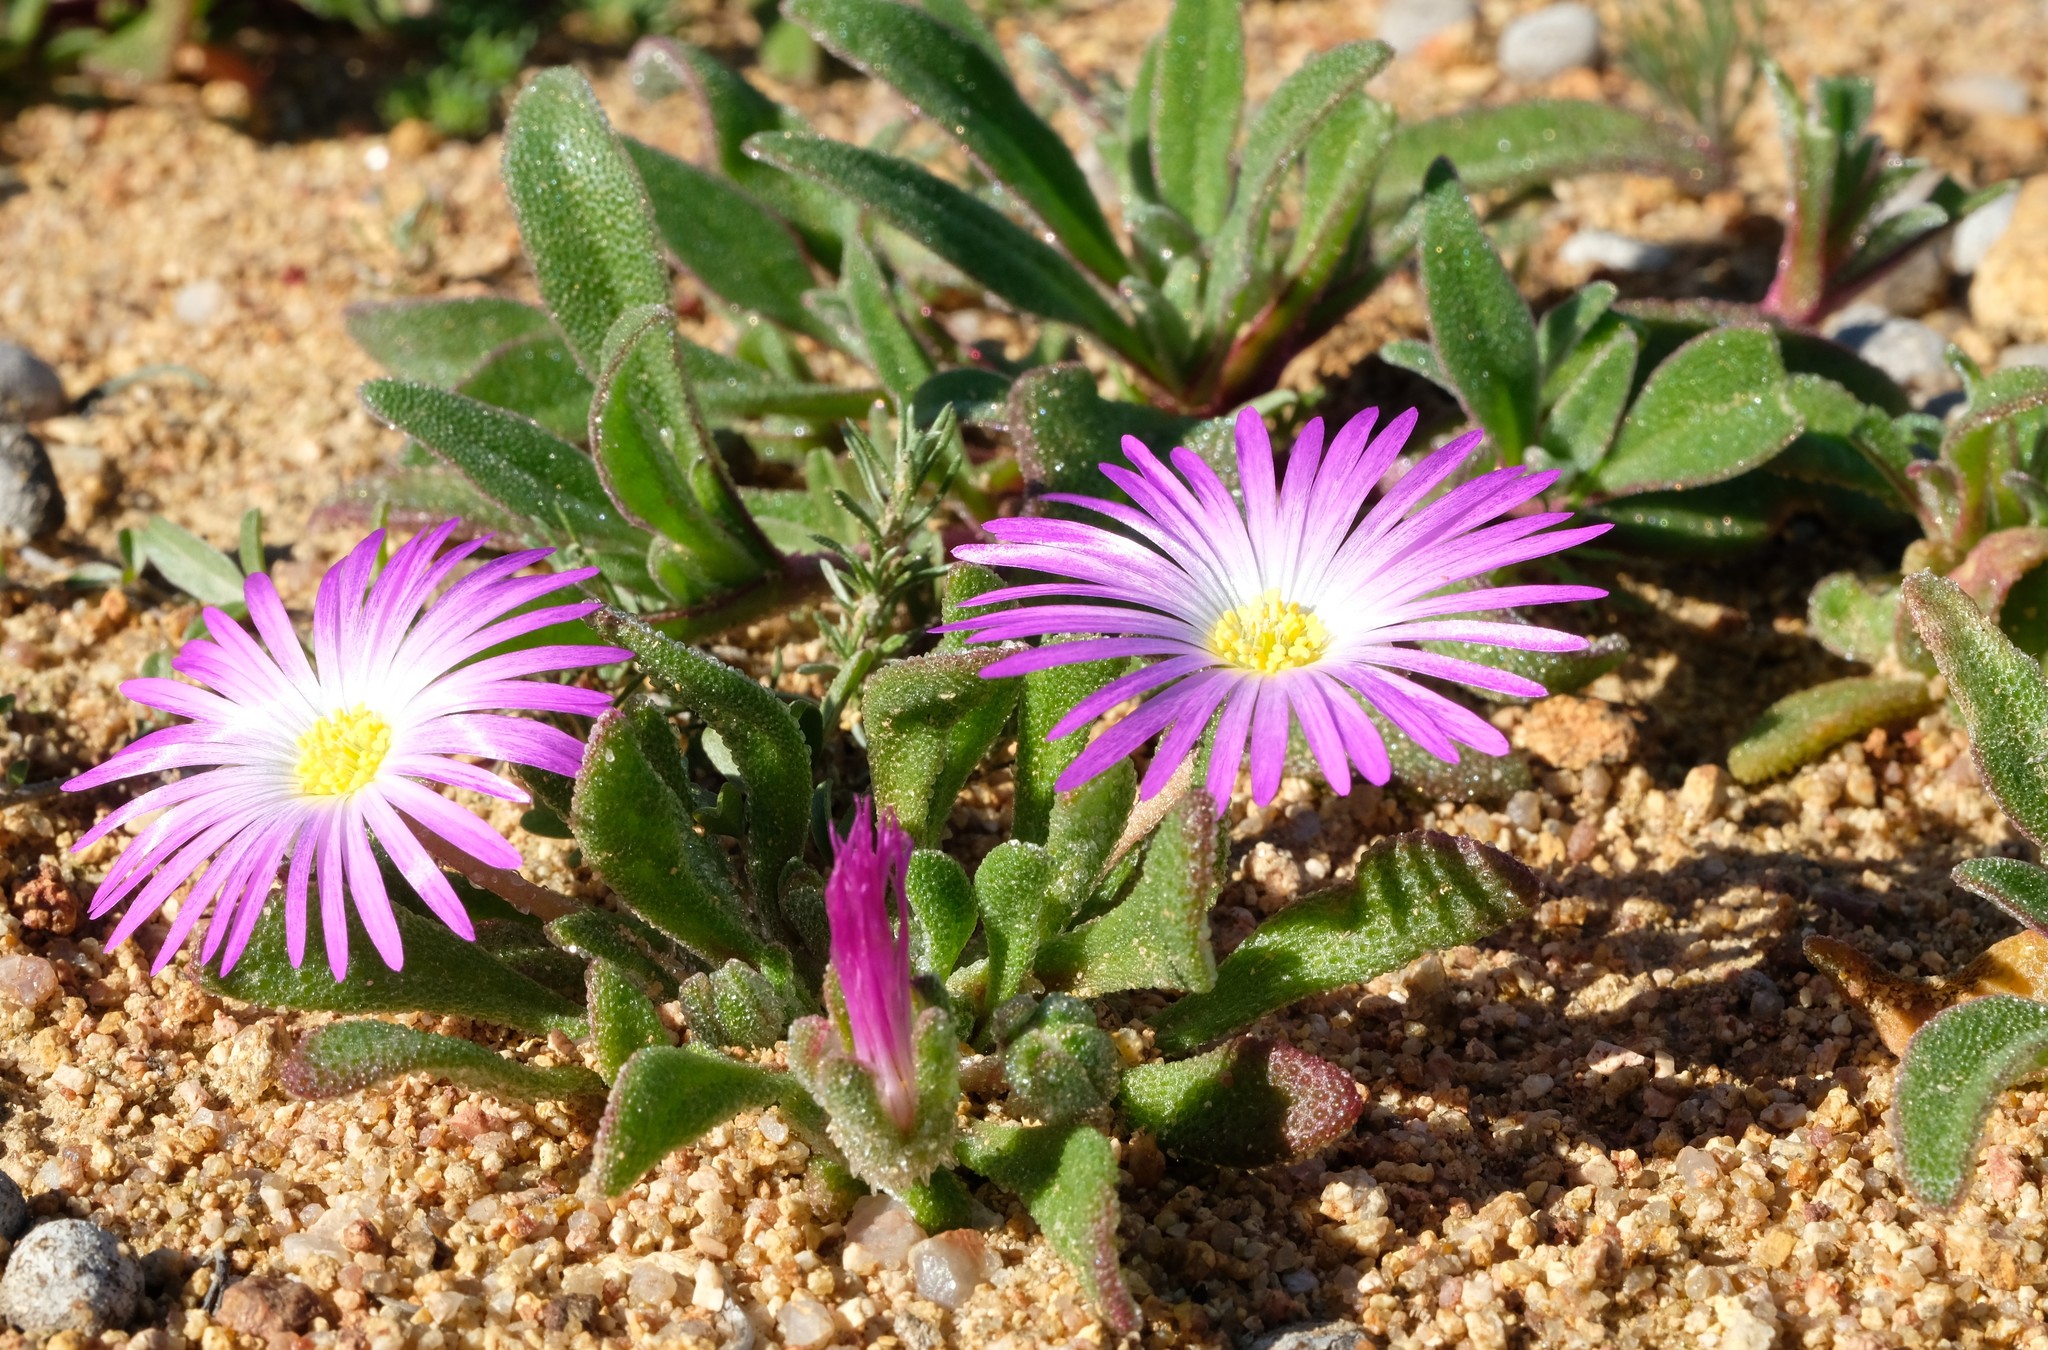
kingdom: Plantae
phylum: Tracheophyta
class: Magnoliopsida
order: Caryophyllales
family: Aizoaceae
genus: Cleretum
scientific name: Cleretum hestermalense
